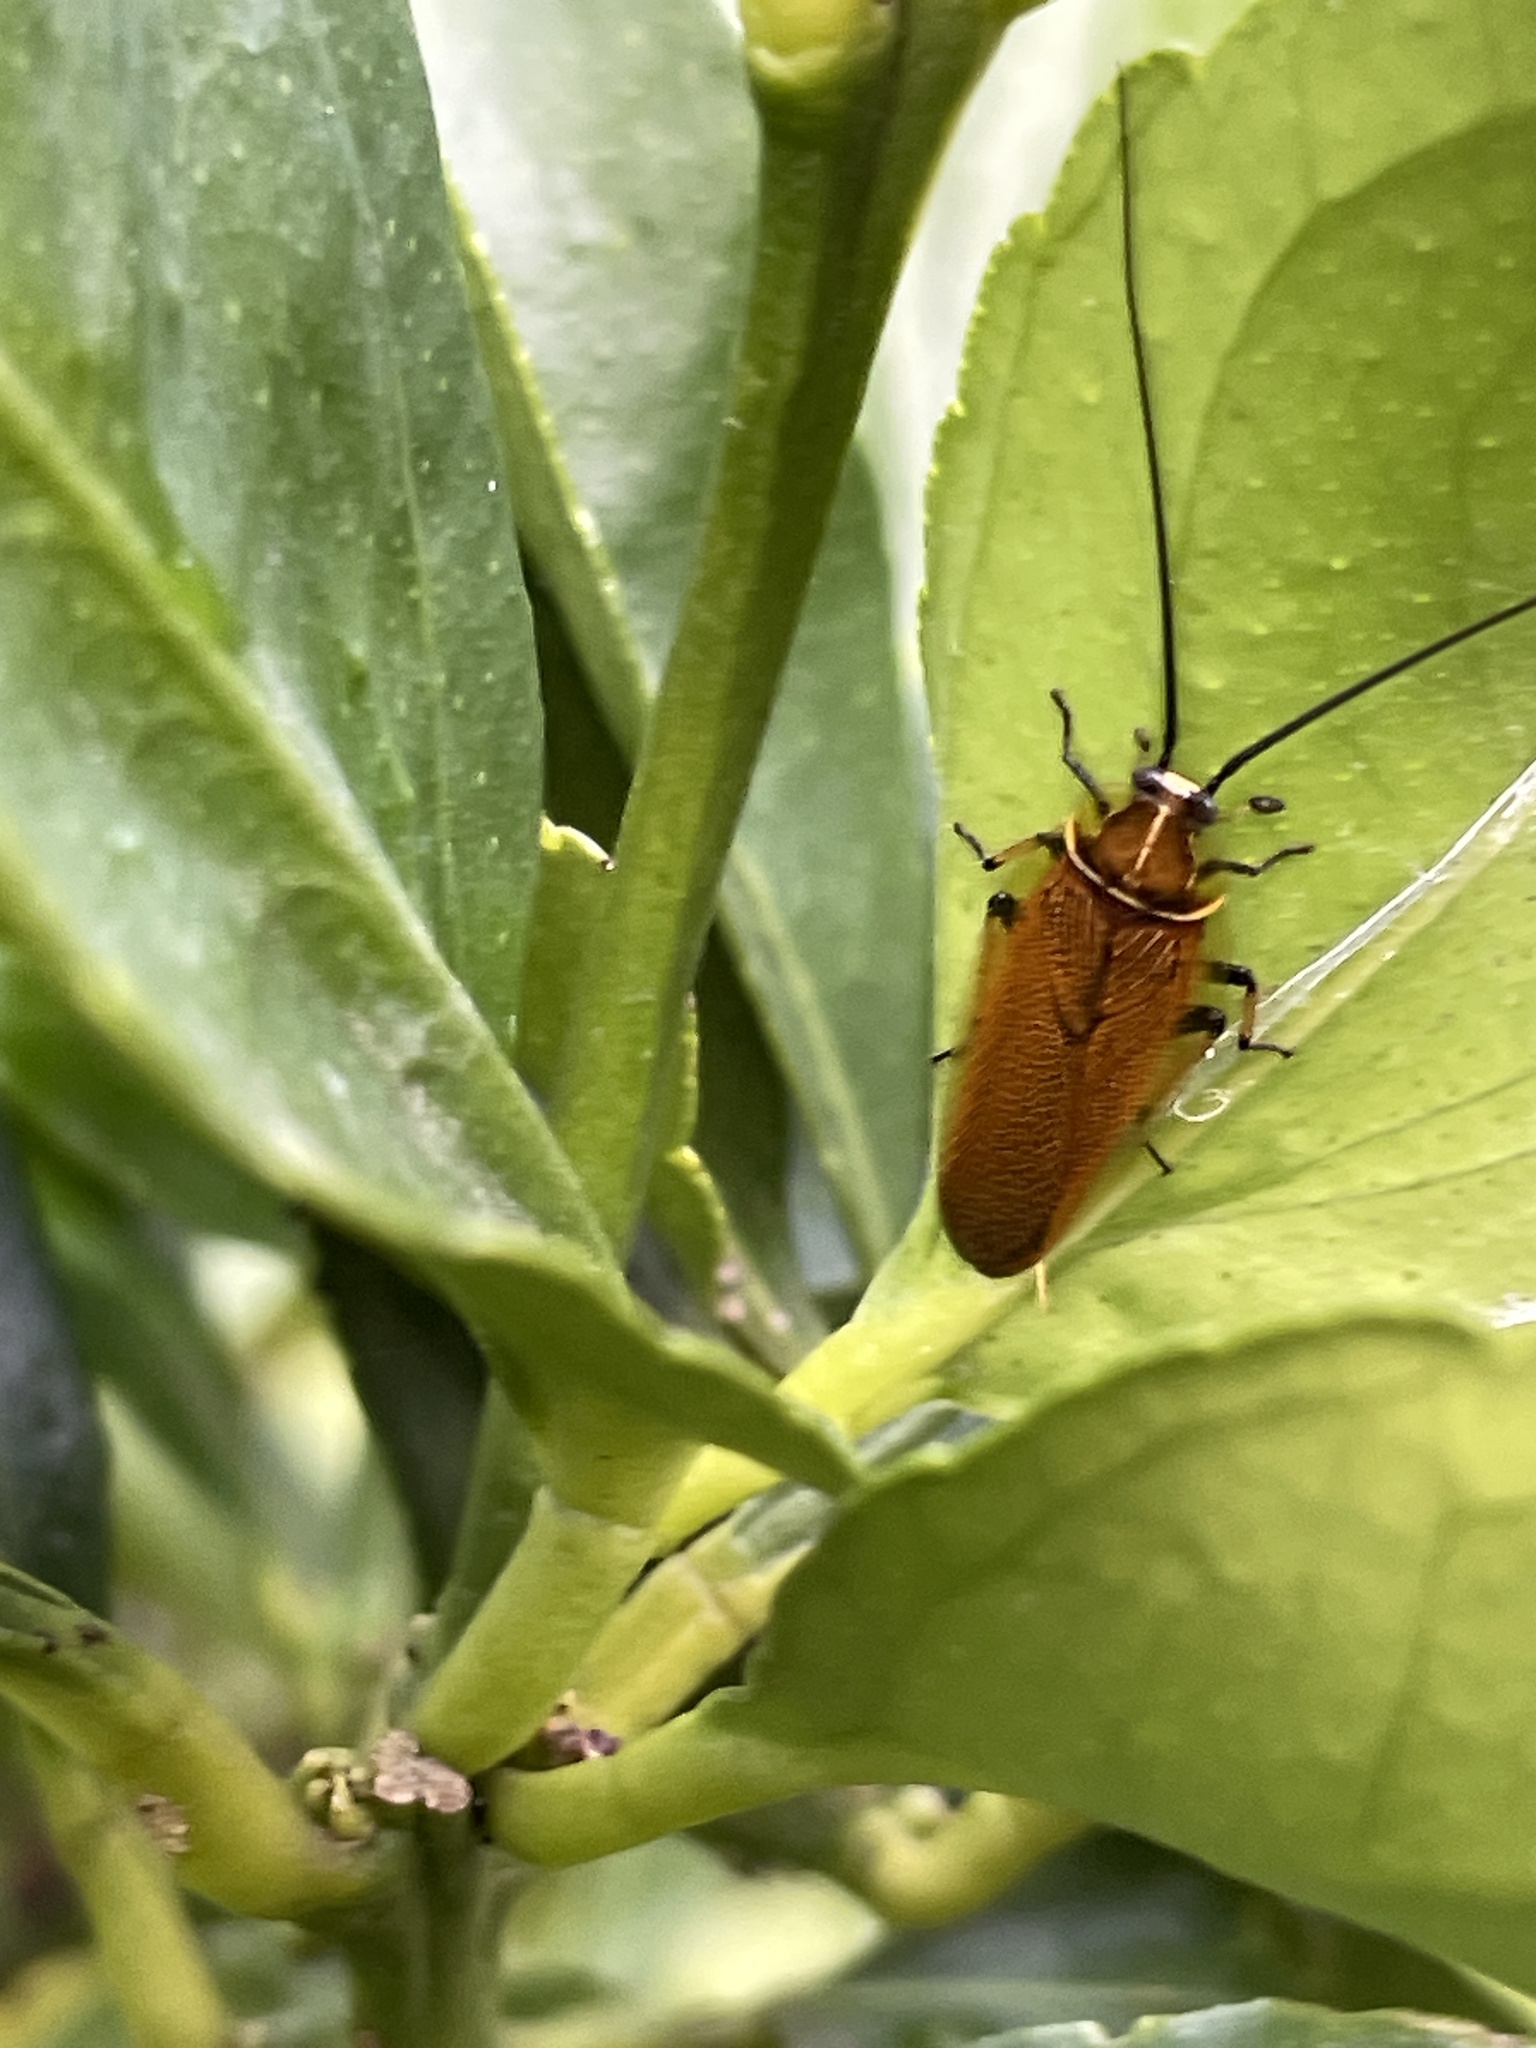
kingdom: Animalia
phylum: Arthropoda
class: Insecta
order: Blattodea
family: Ectobiidae
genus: Balta
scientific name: Balta bicolor
